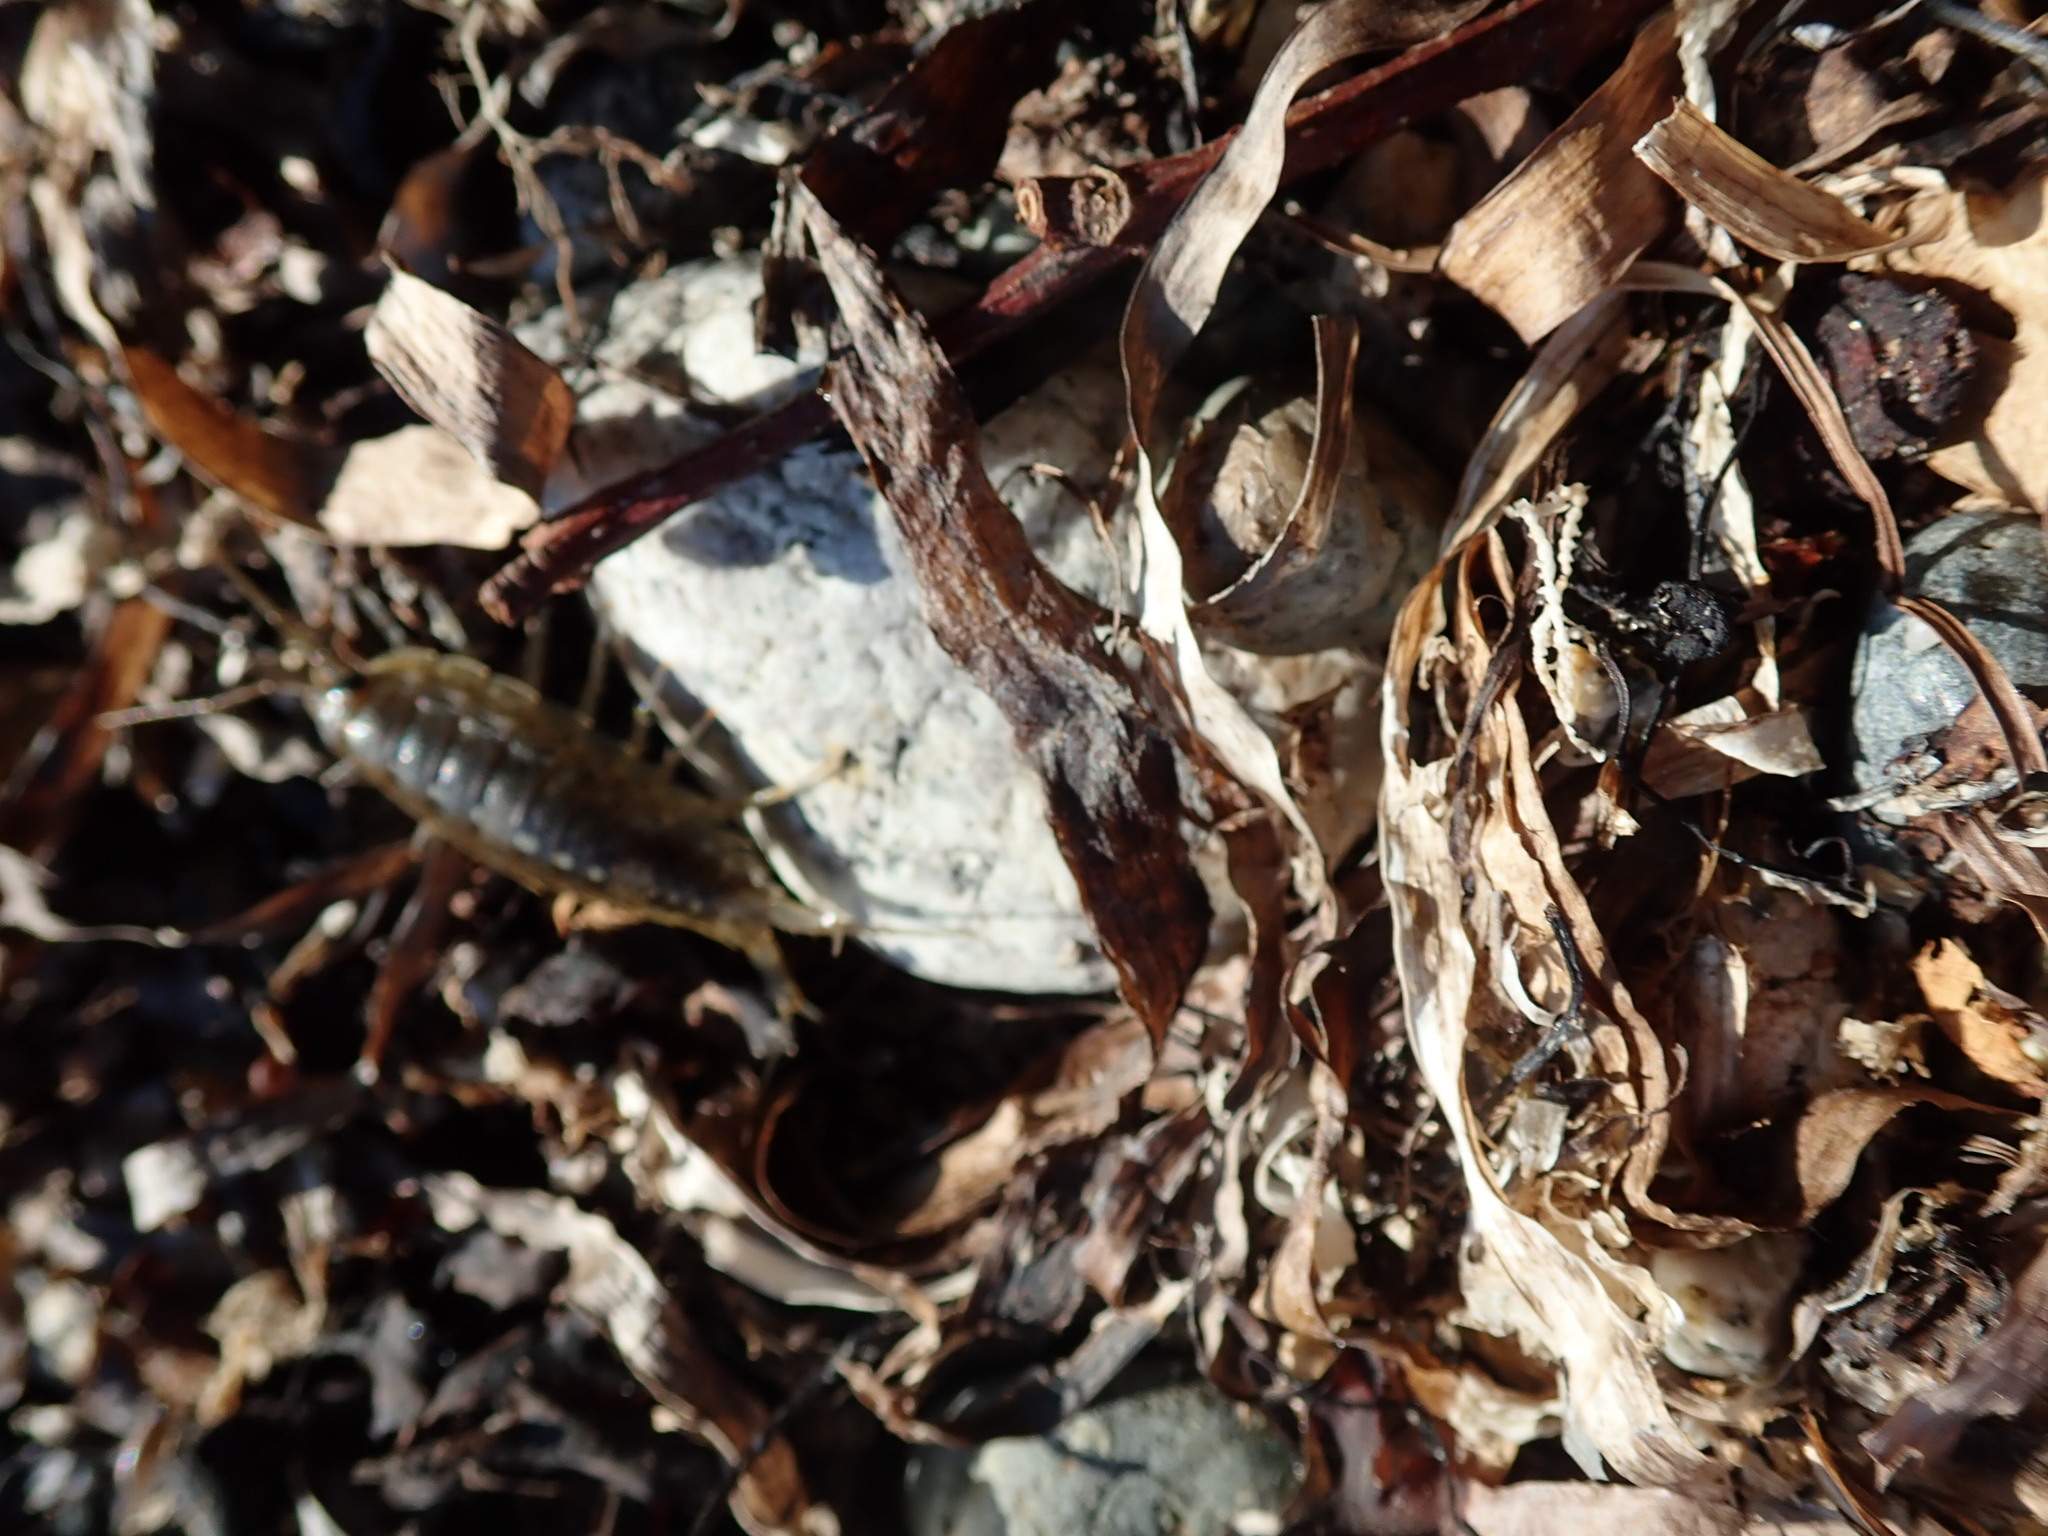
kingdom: Animalia
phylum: Arthropoda
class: Malacostraca
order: Isopoda
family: Ligiidae
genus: Ligia
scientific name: Ligia occidentalis
